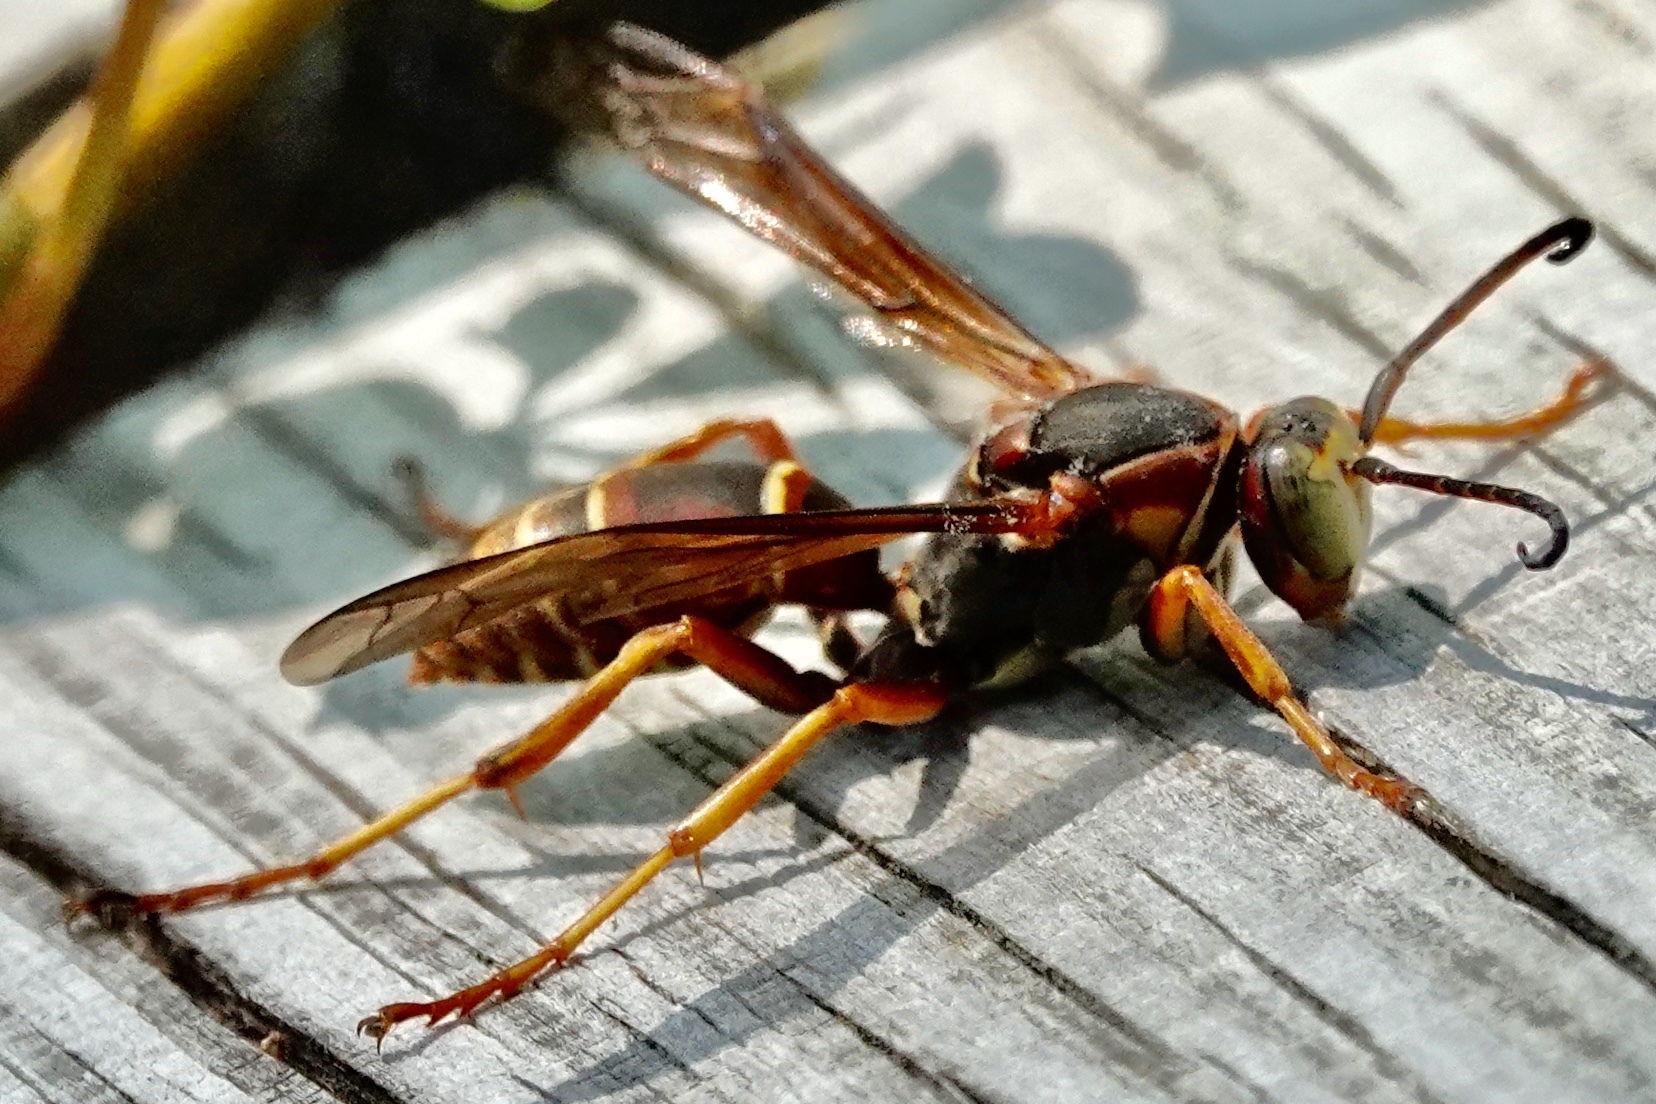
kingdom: Animalia
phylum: Arthropoda
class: Insecta
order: Hymenoptera
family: Eumenidae
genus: Polistes
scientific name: Polistes fuscatus
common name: Dark paper wasp
